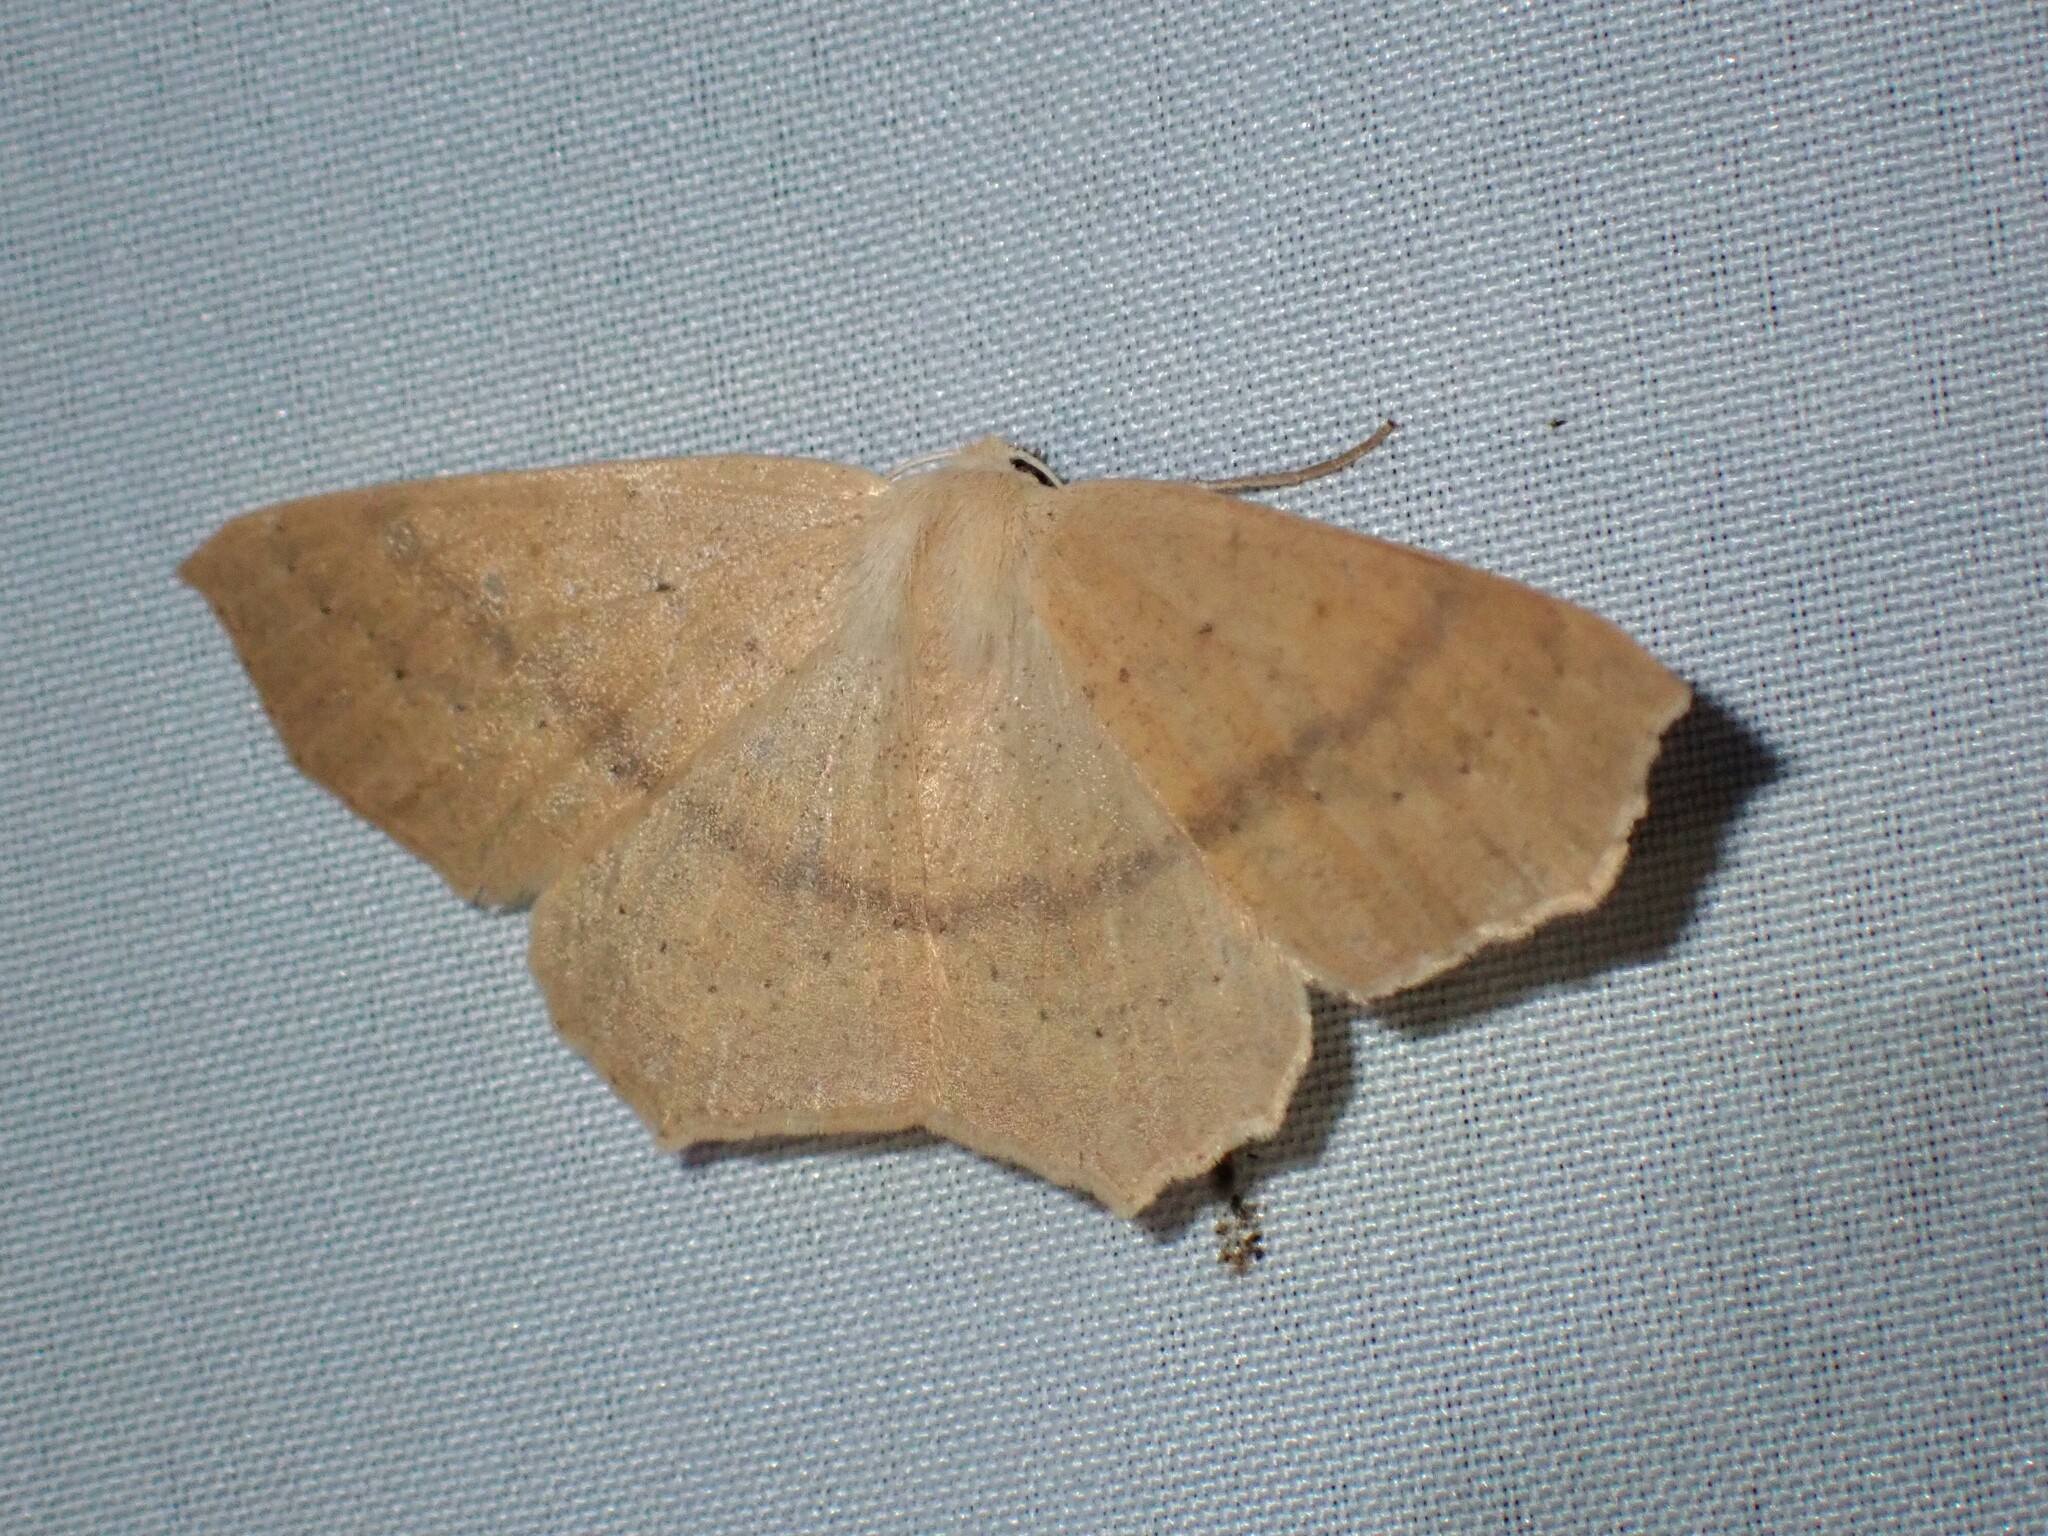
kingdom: Animalia
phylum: Arthropoda
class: Insecta
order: Lepidoptera
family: Geometridae
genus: Sabulodes
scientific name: Sabulodes aegrotata
